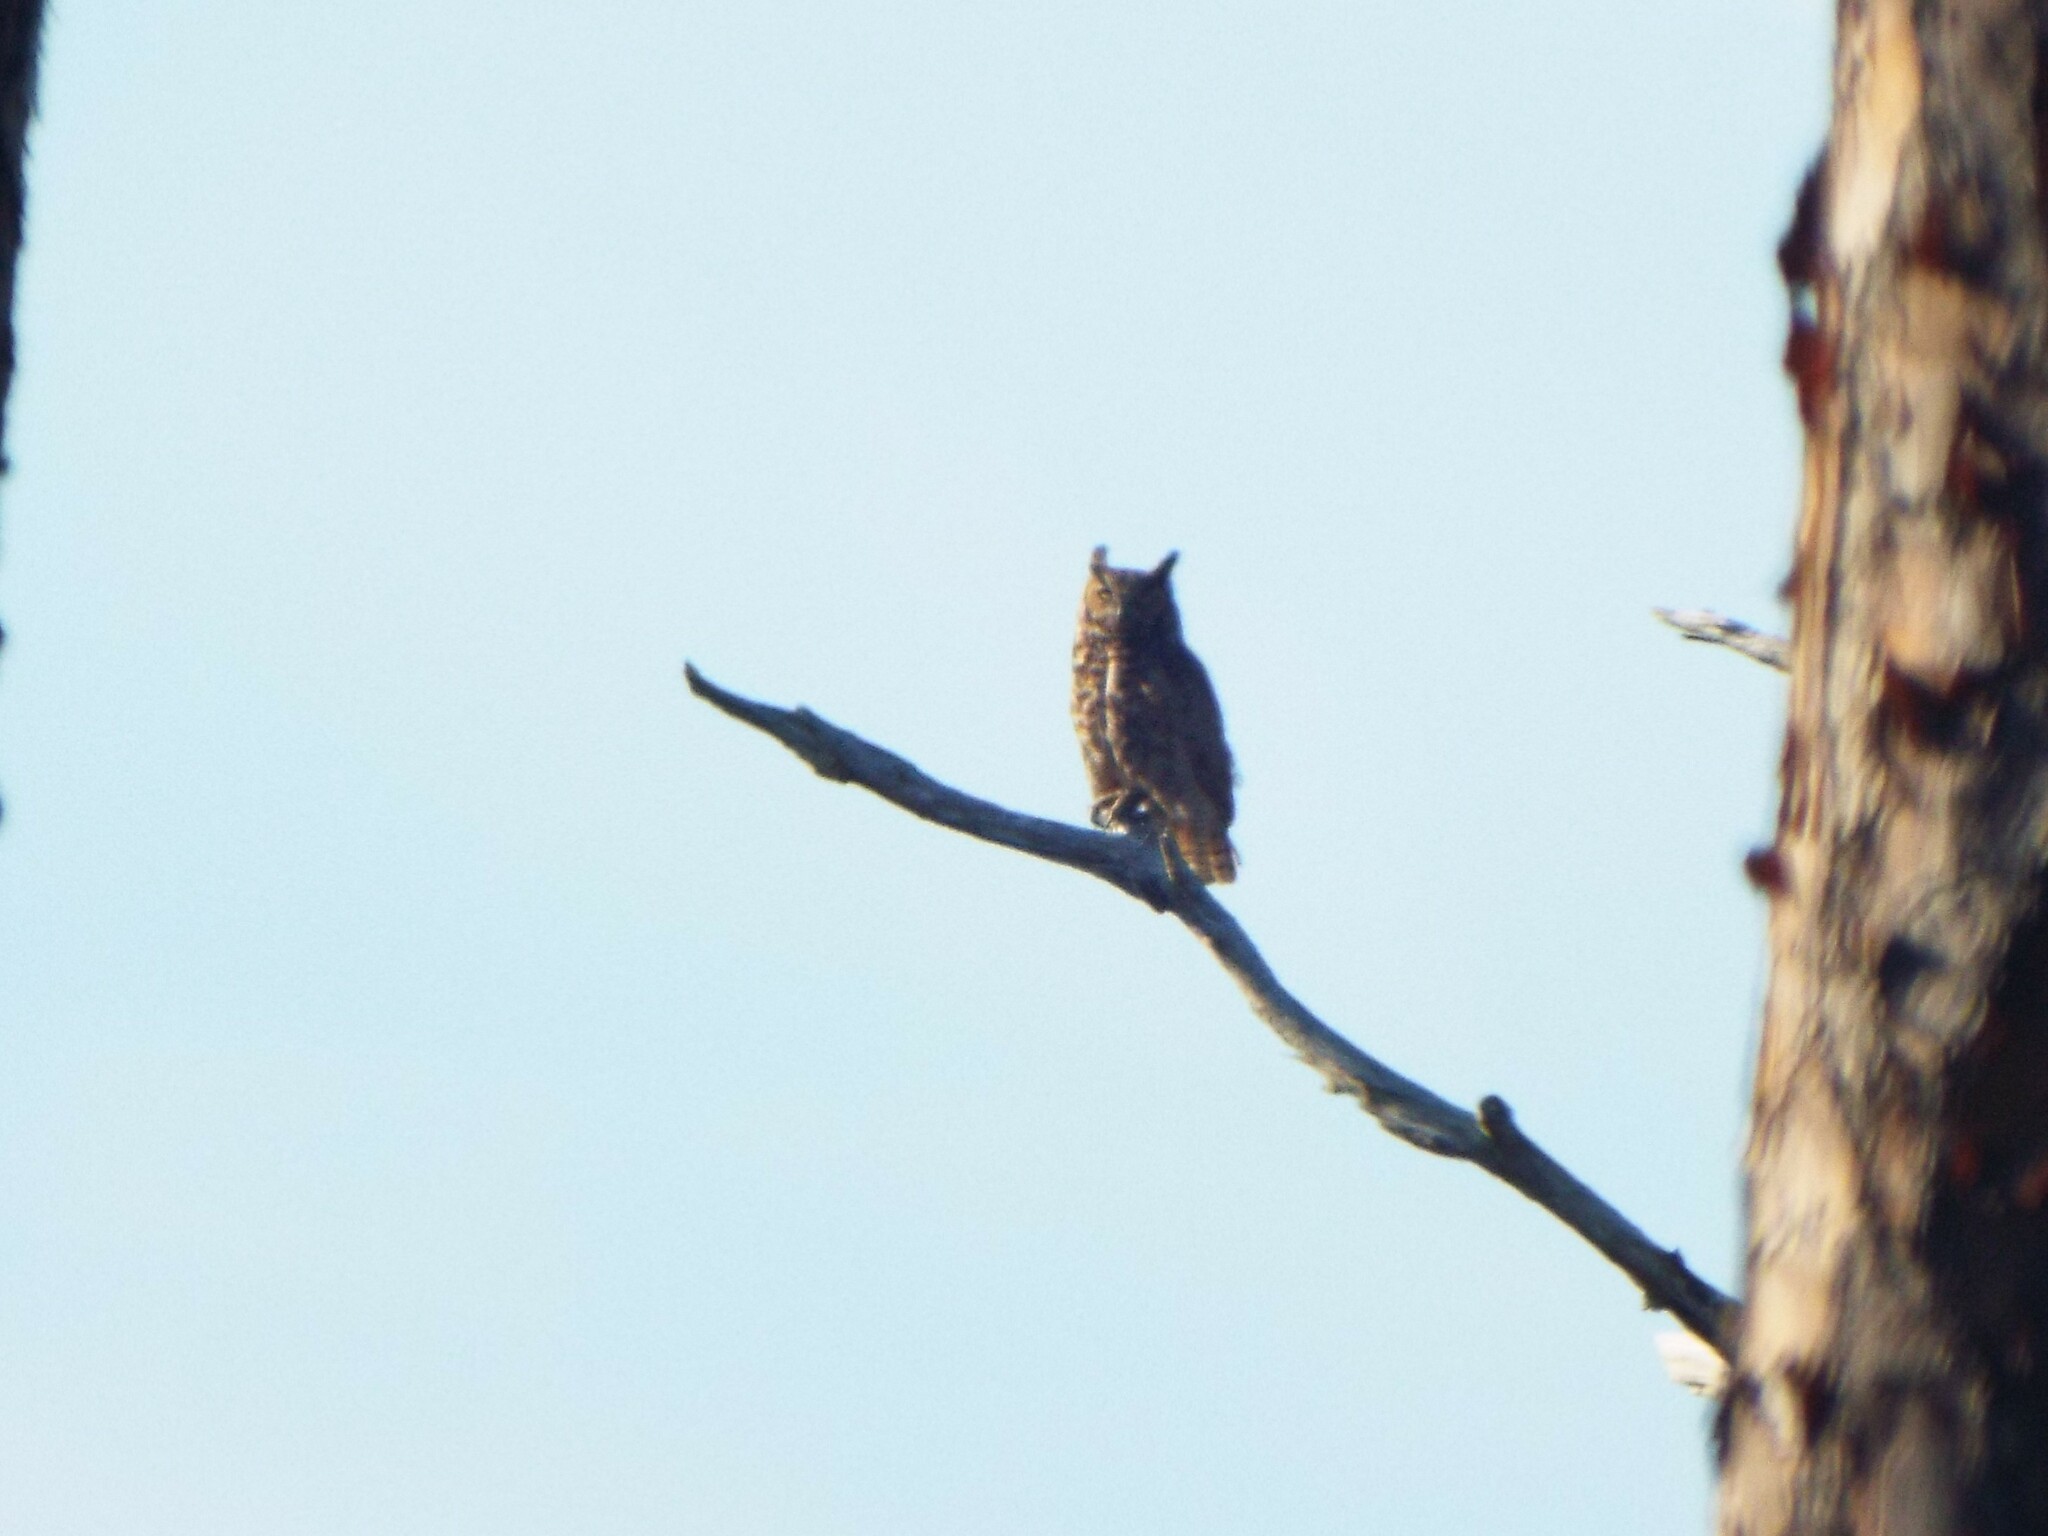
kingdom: Animalia
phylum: Chordata
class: Aves
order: Strigiformes
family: Strigidae
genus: Bubo
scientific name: Bubo virginianus
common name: Great horned owl
